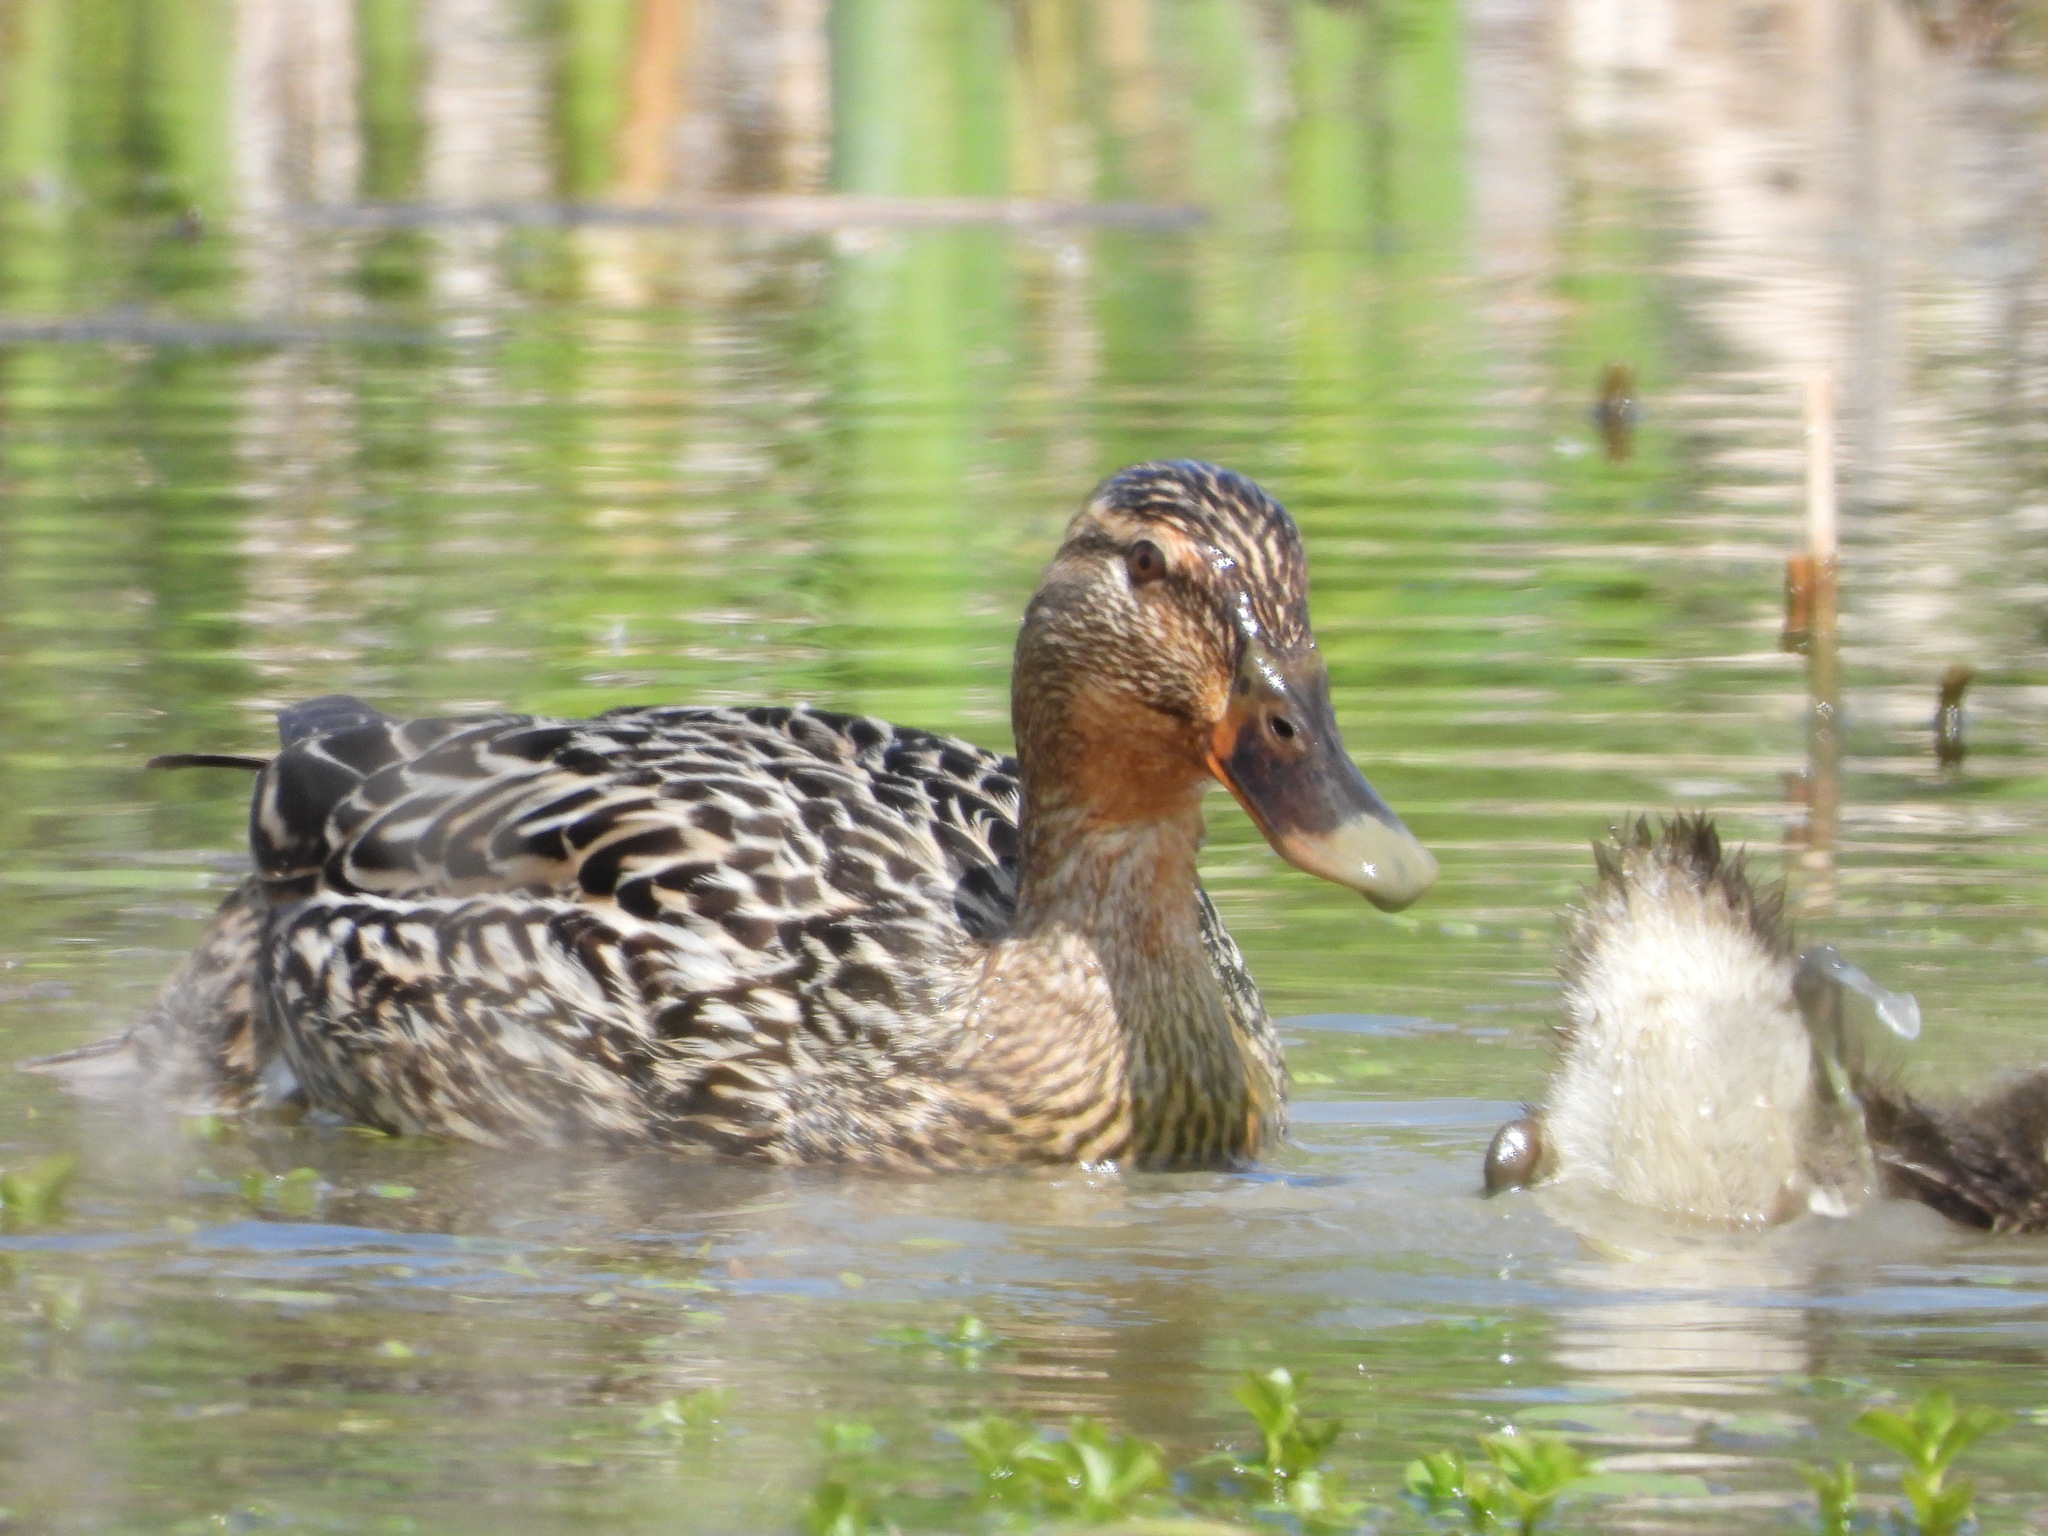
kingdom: Animalia
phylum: Chordata
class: Aves
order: Anseriformes
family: Anatidae
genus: Anas
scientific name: Anas platyrhynchos
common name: Mallard
